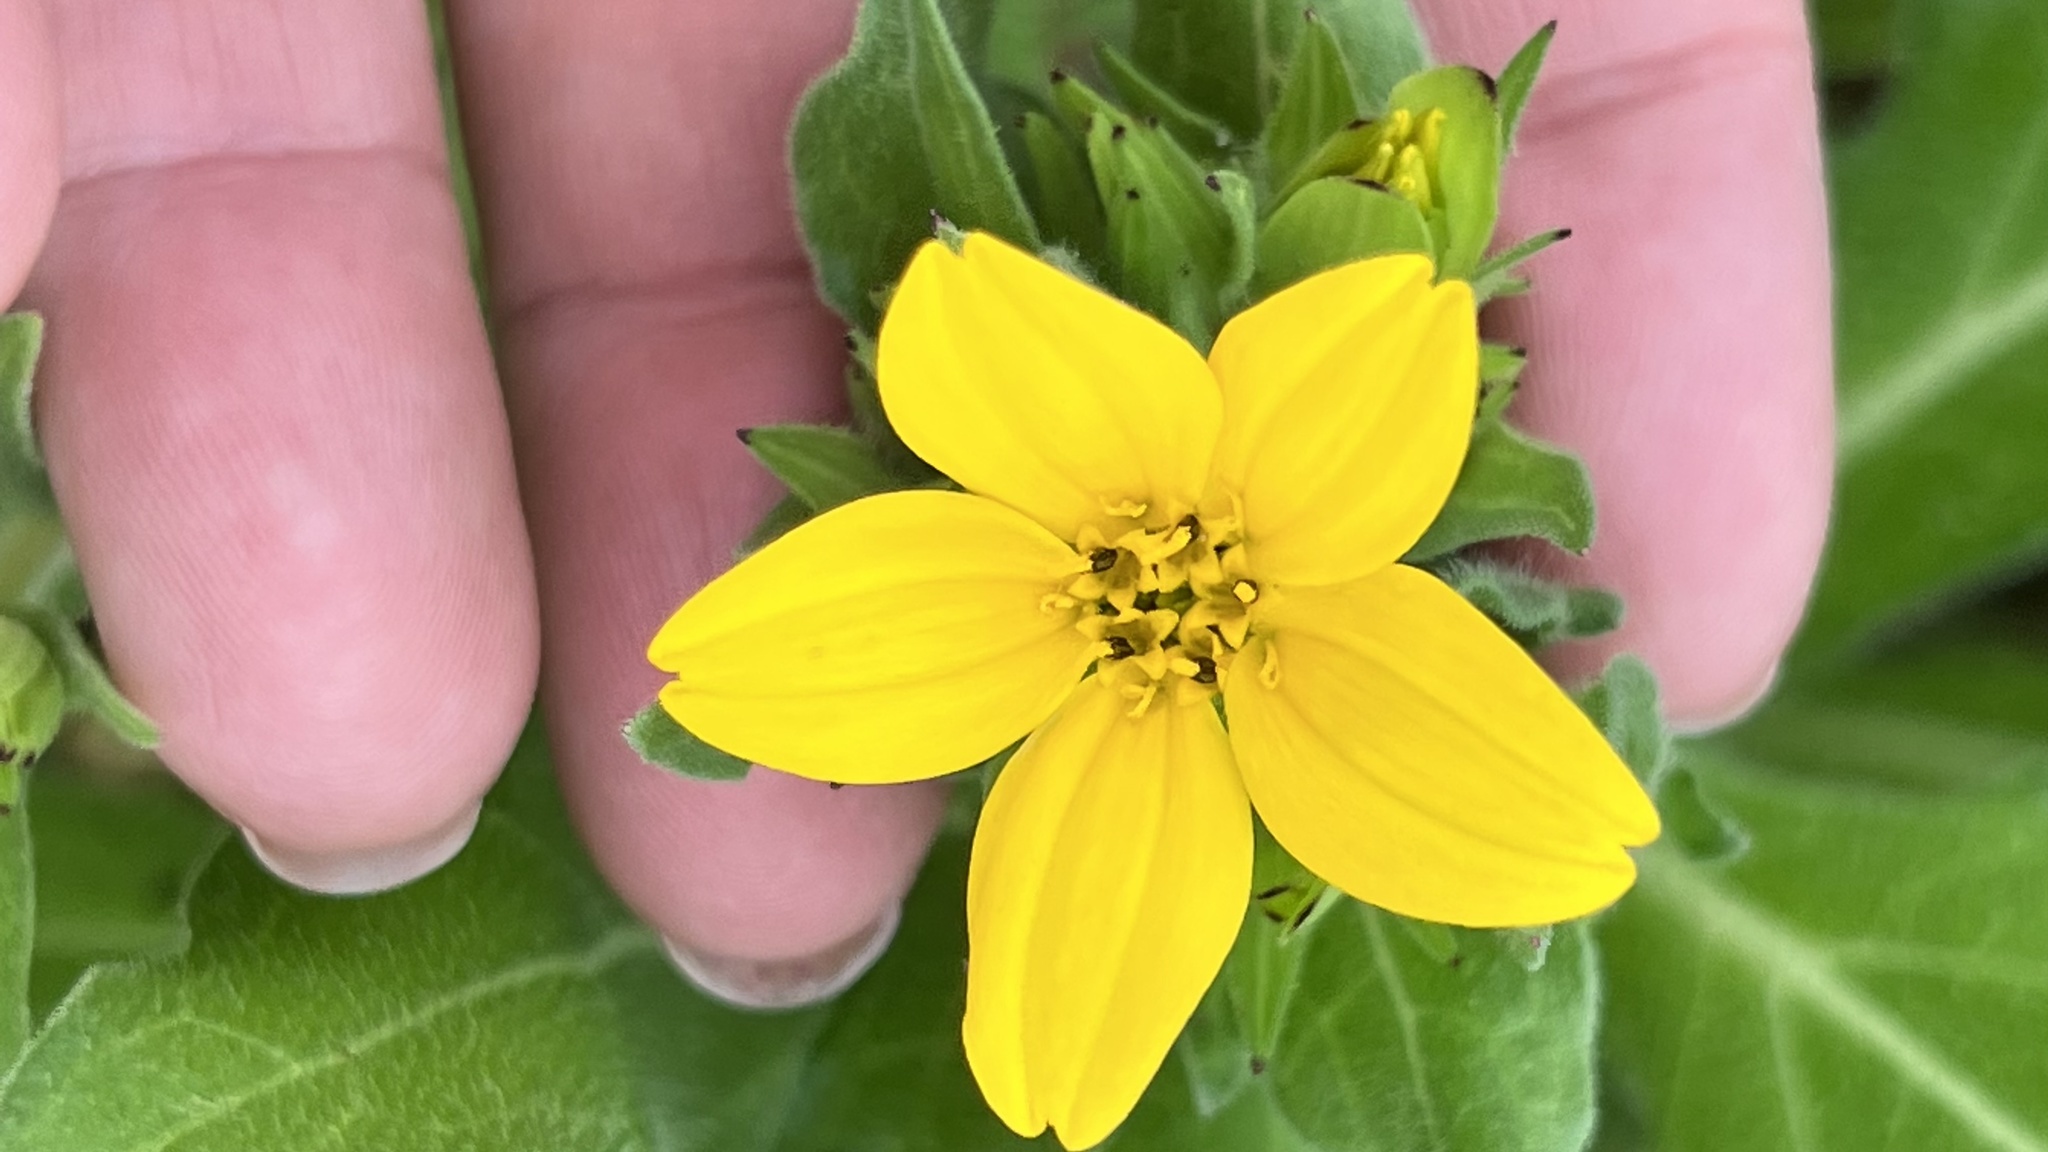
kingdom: Plantae
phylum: Tracheophyta
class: Magnoliopsida
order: Asterales
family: Asteraceae
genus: Lindheimera
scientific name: Lindheimera texana
